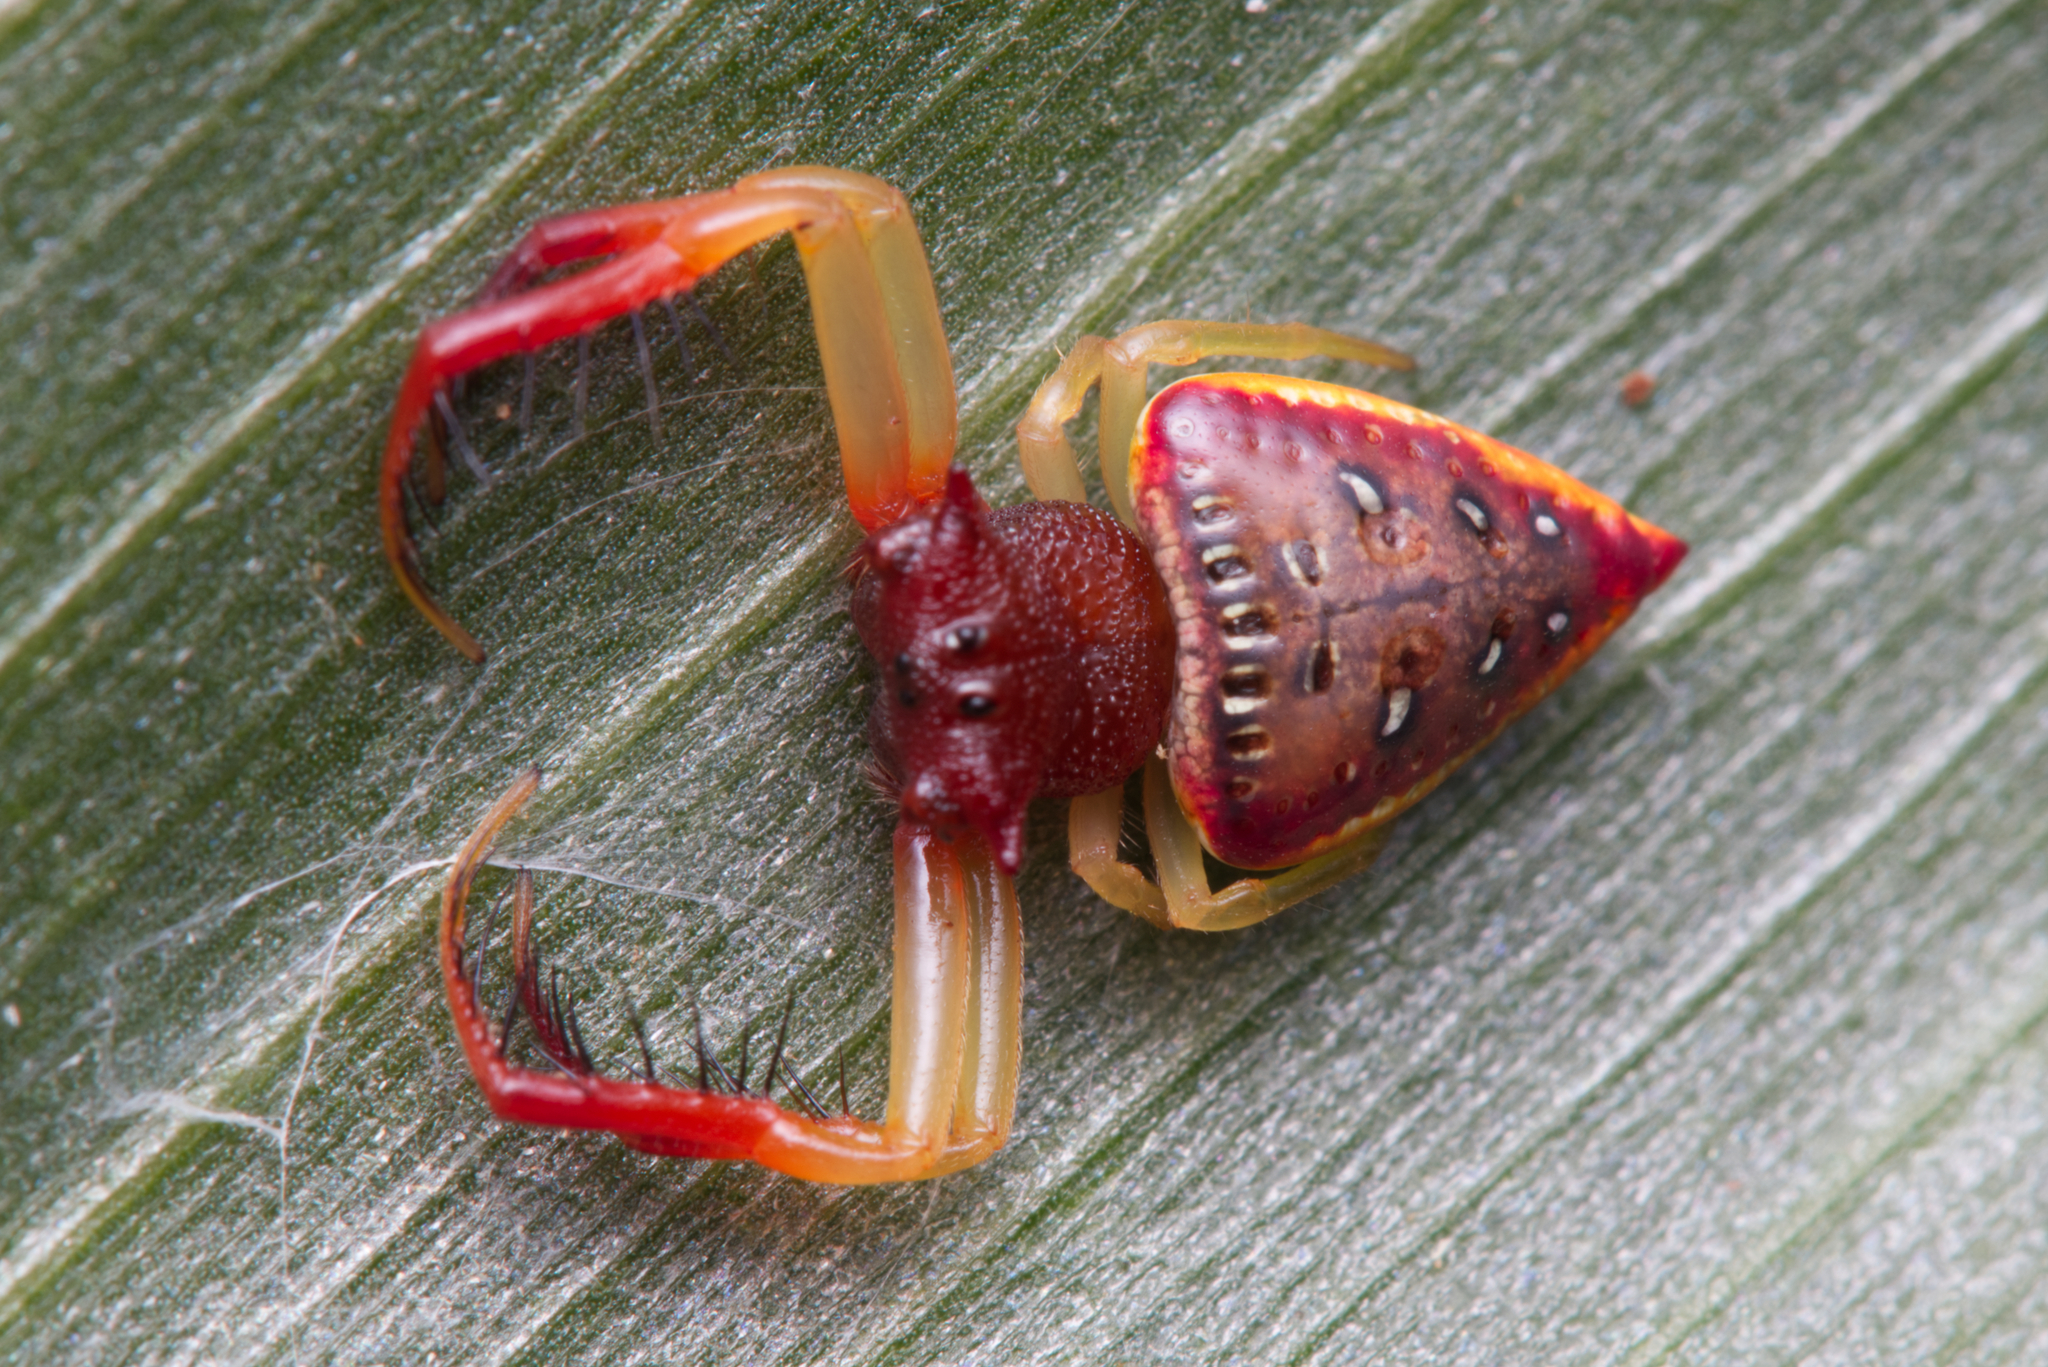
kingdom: Animalia
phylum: Arthropoda
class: Arachnida
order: Araneae
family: Arkyidae
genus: Arkys
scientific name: Arkys cornutus
